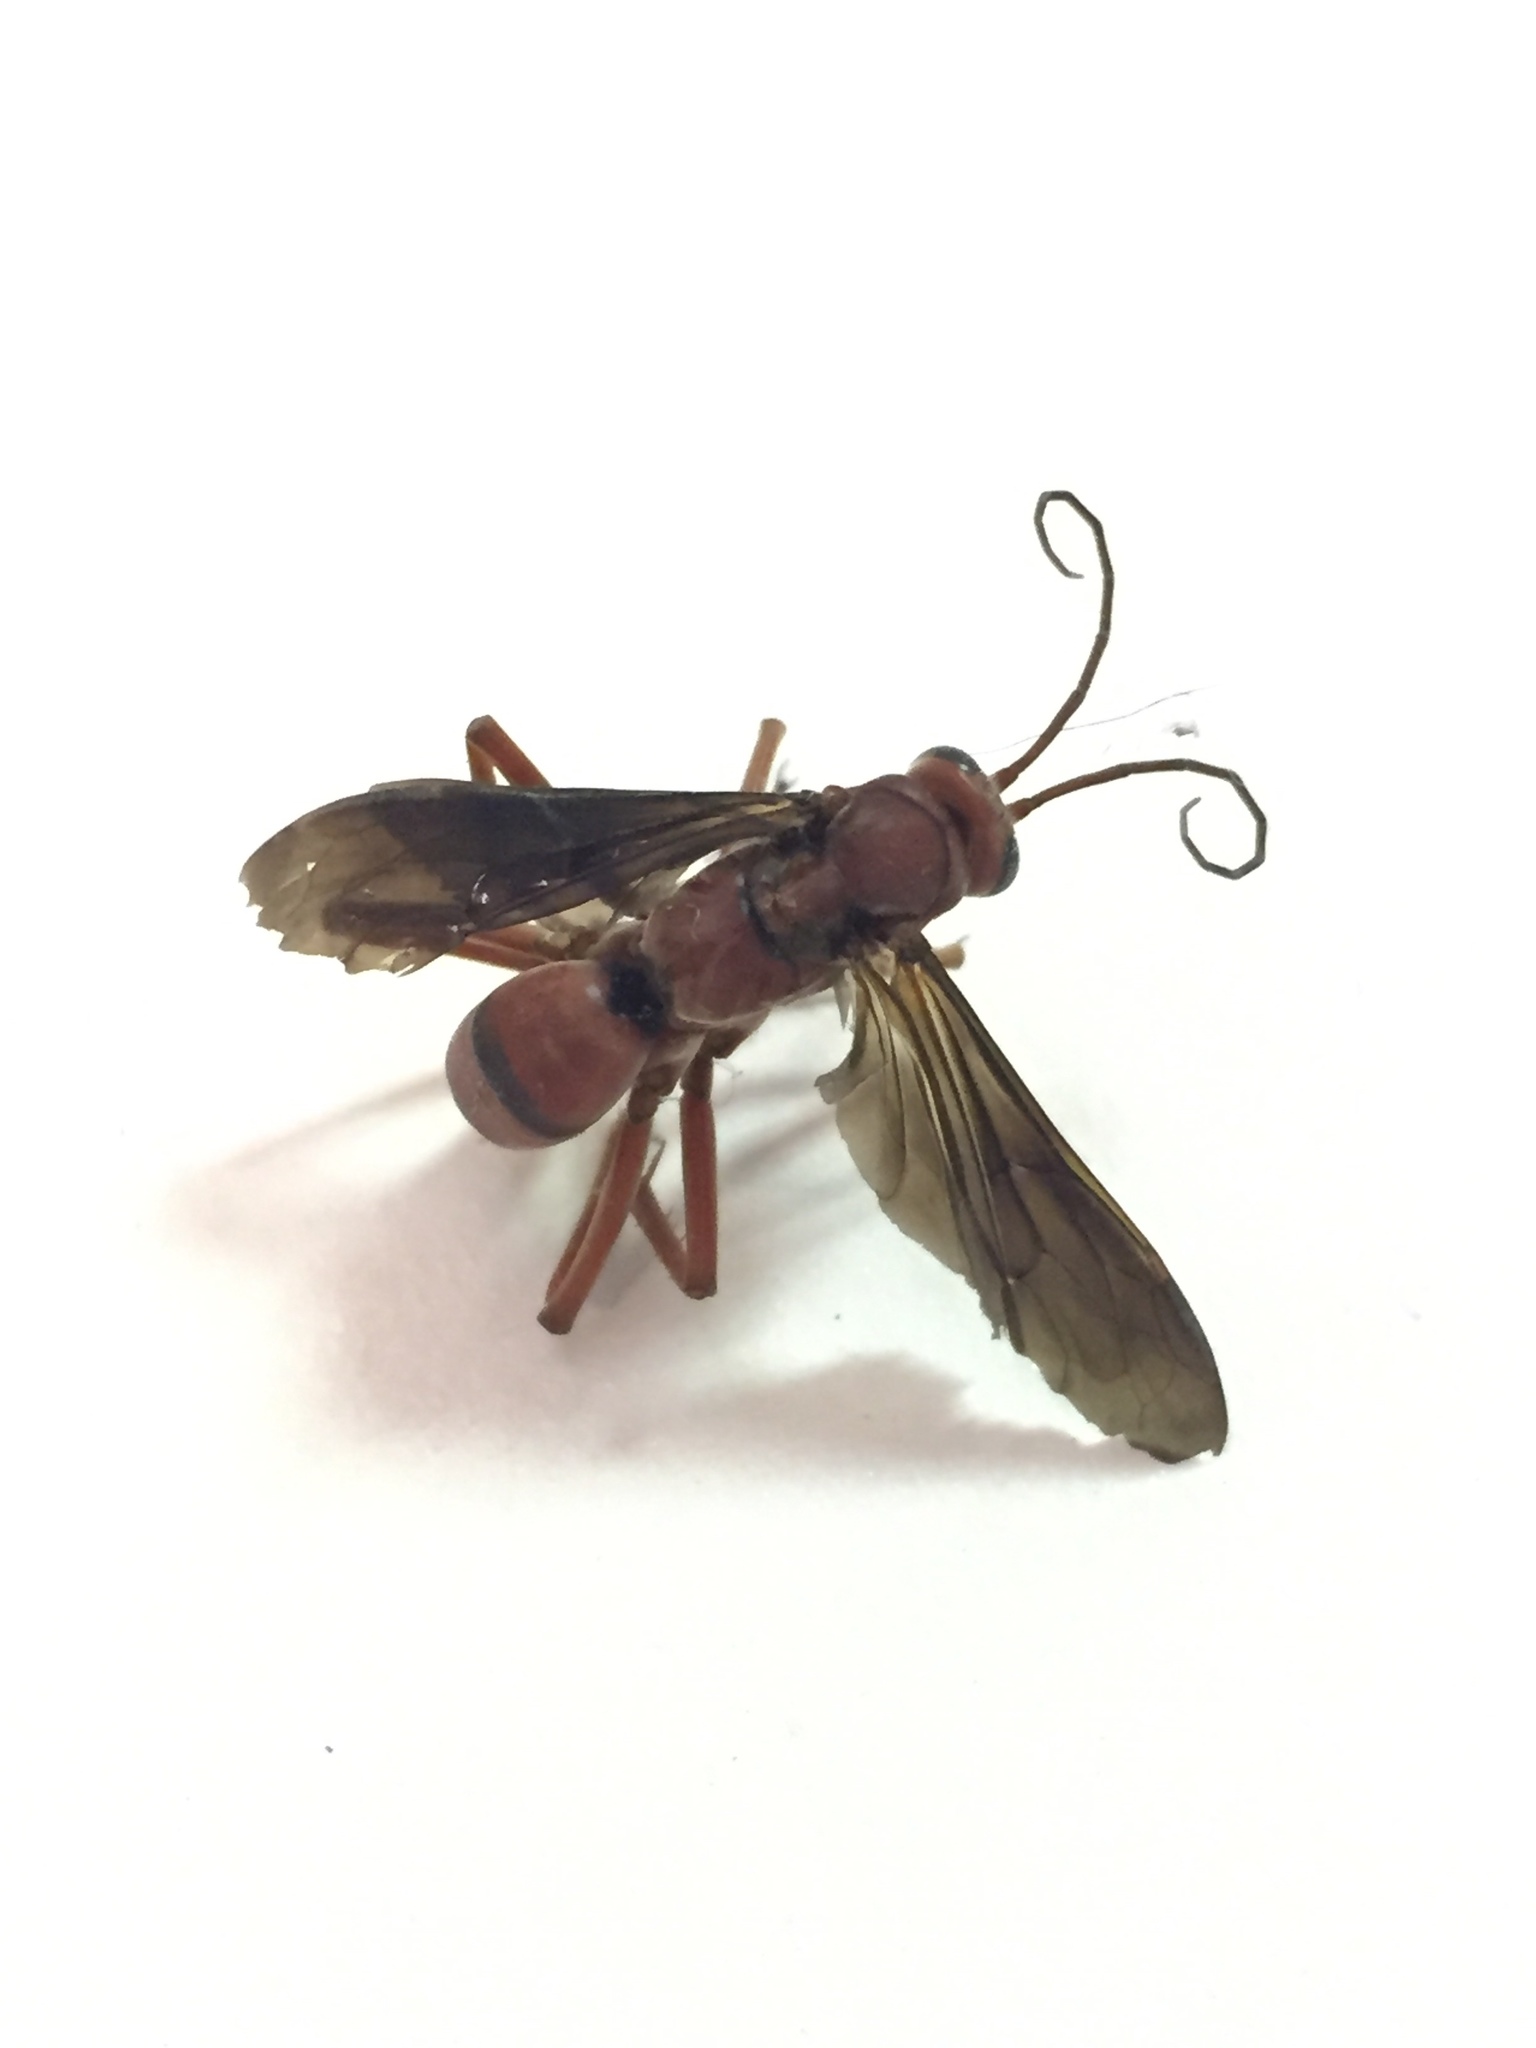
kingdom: Animalia
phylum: Arthropoda
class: Insecta
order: Hymenoptera
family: Pompilidae
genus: Tachypompilus
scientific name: Tachypompilus ferrugineus
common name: Rusty spider wasp
